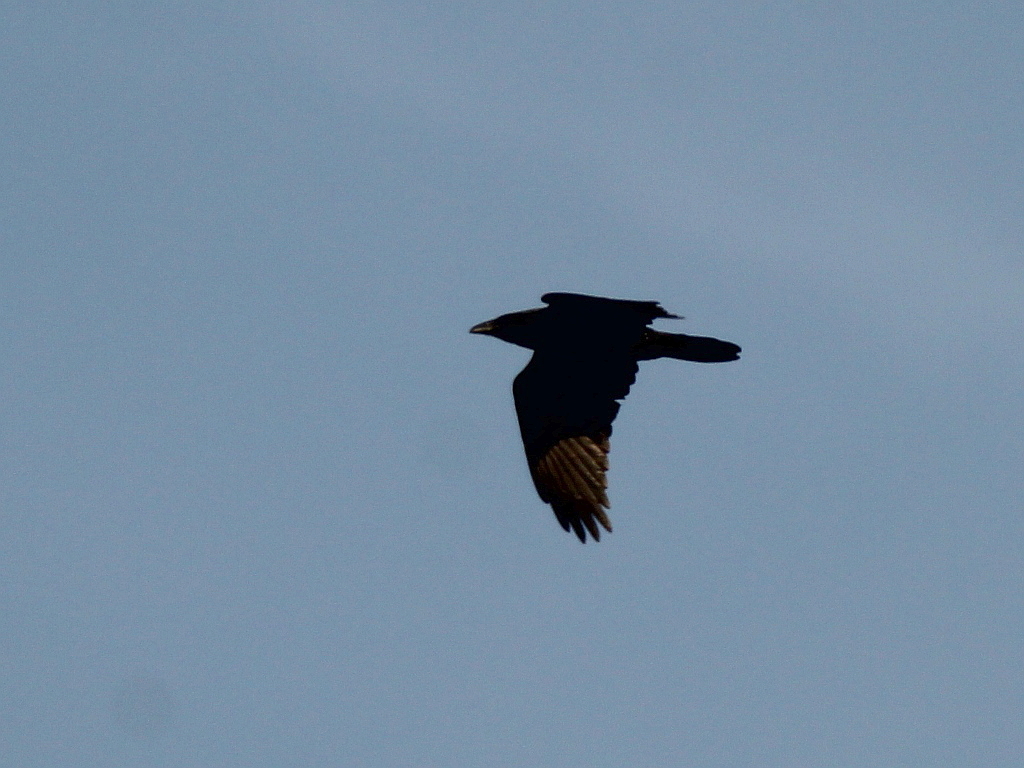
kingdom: Animalia
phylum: Chordata
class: Aves
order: Passeriformes
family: Corvidae
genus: Corvus
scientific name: Corvus corax
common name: Common raven
